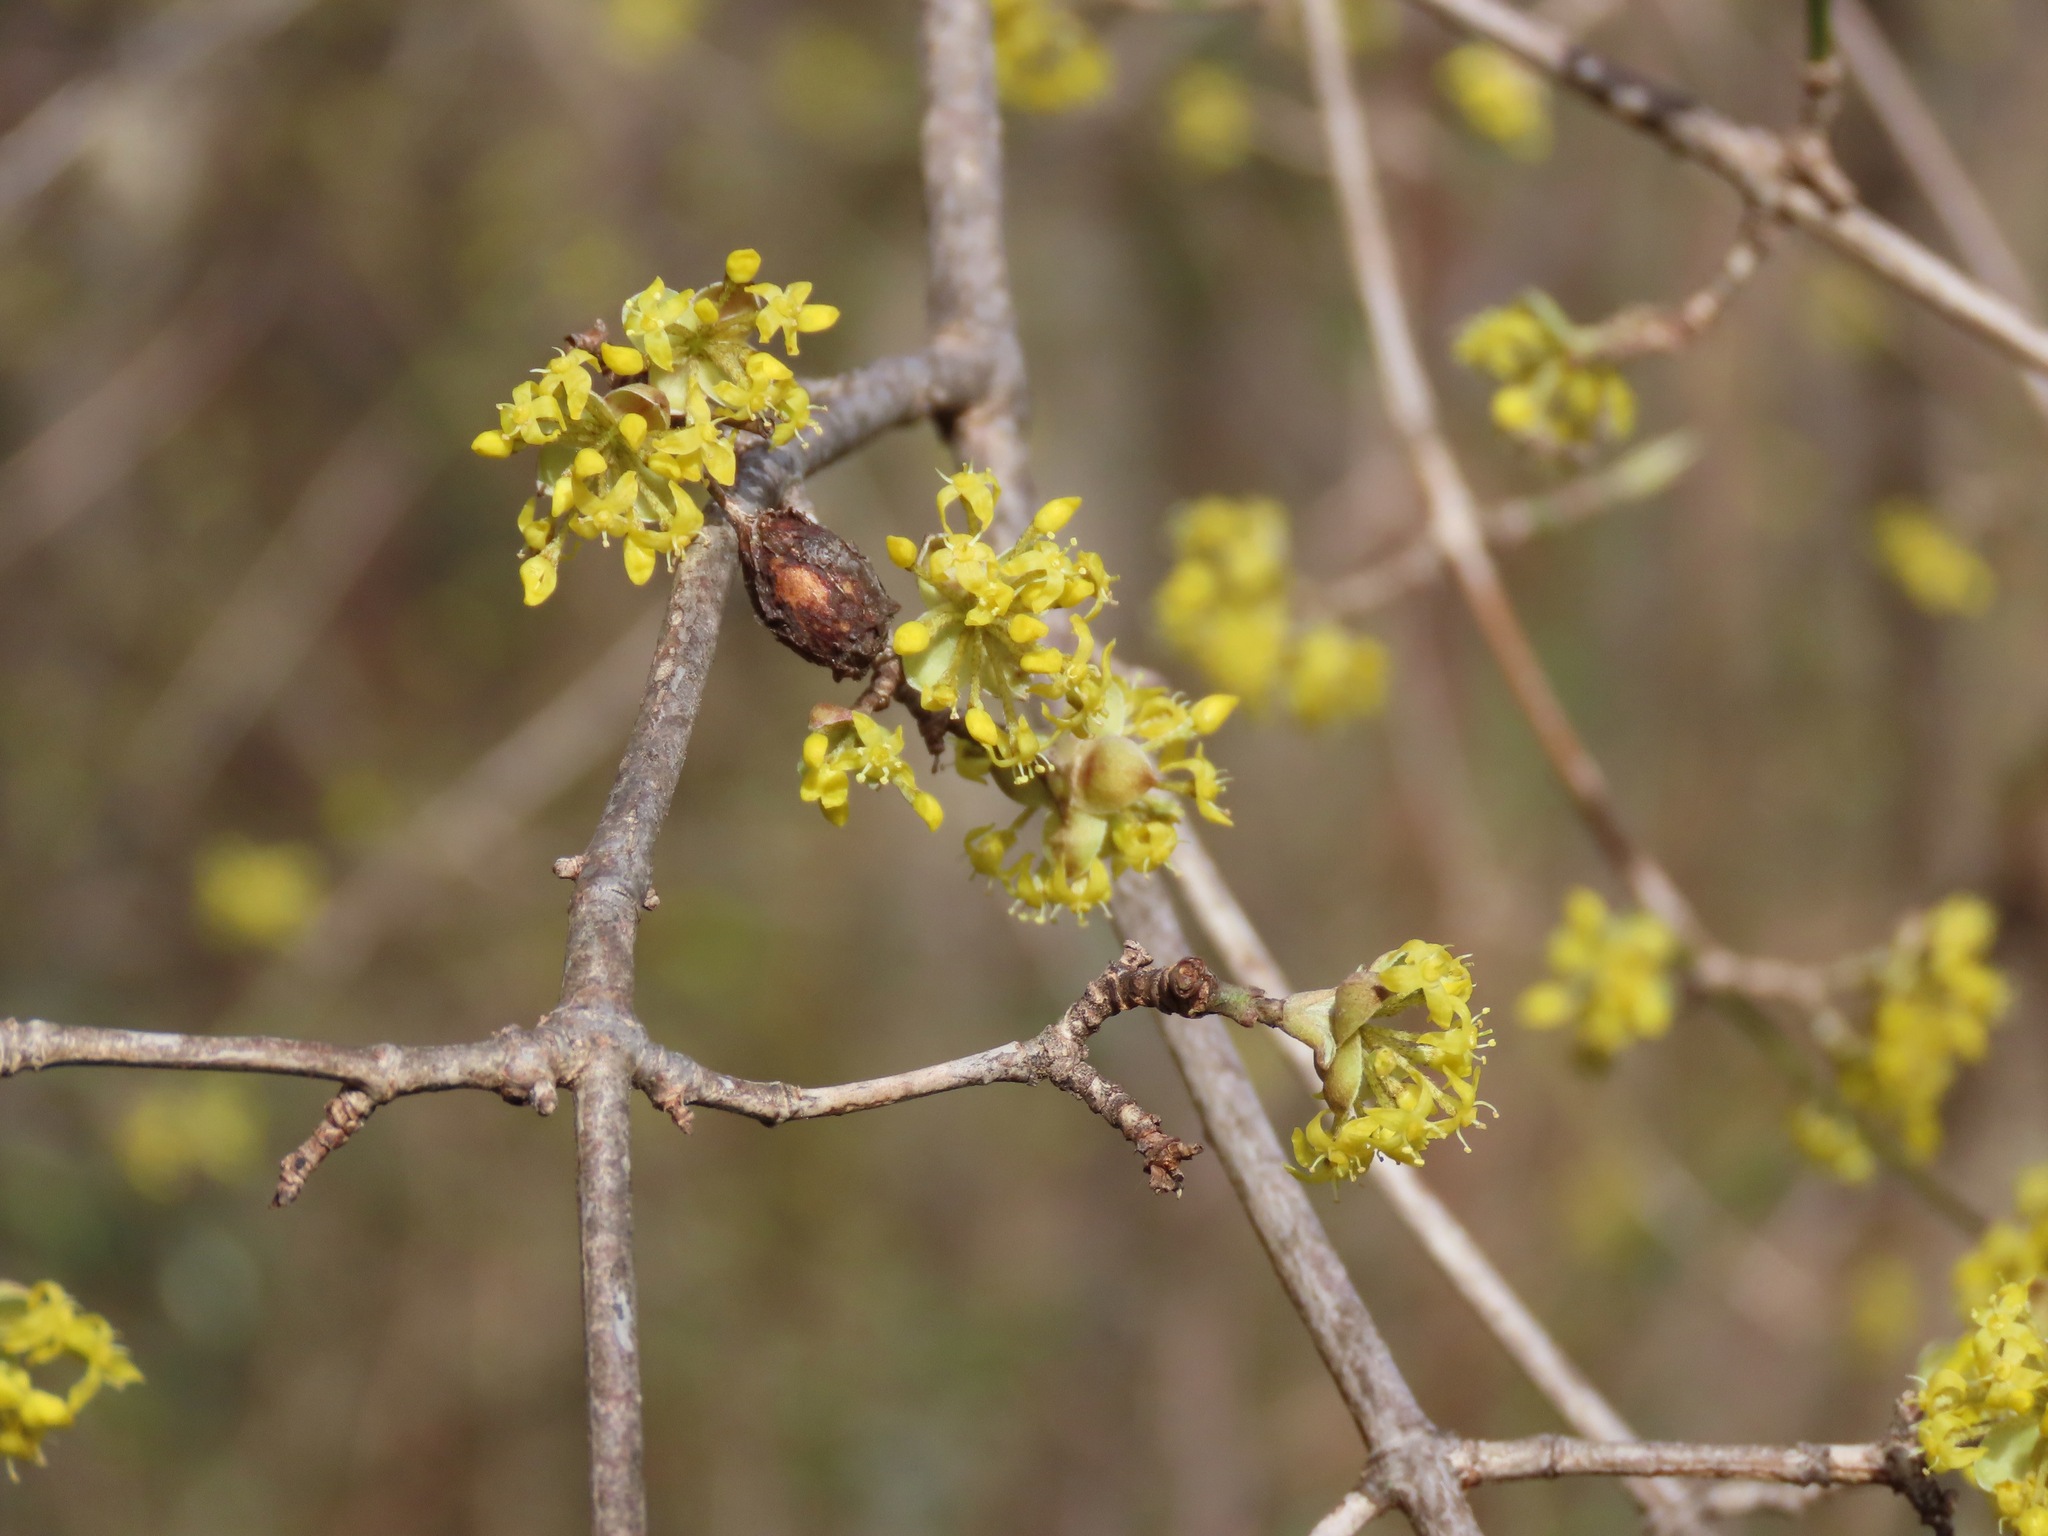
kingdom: Plantae
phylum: Tracheophyta
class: Magnoliopsida
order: Cornales
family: Cornaceae
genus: Cornus
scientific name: Cornus mas
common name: Cornelian-cherry
